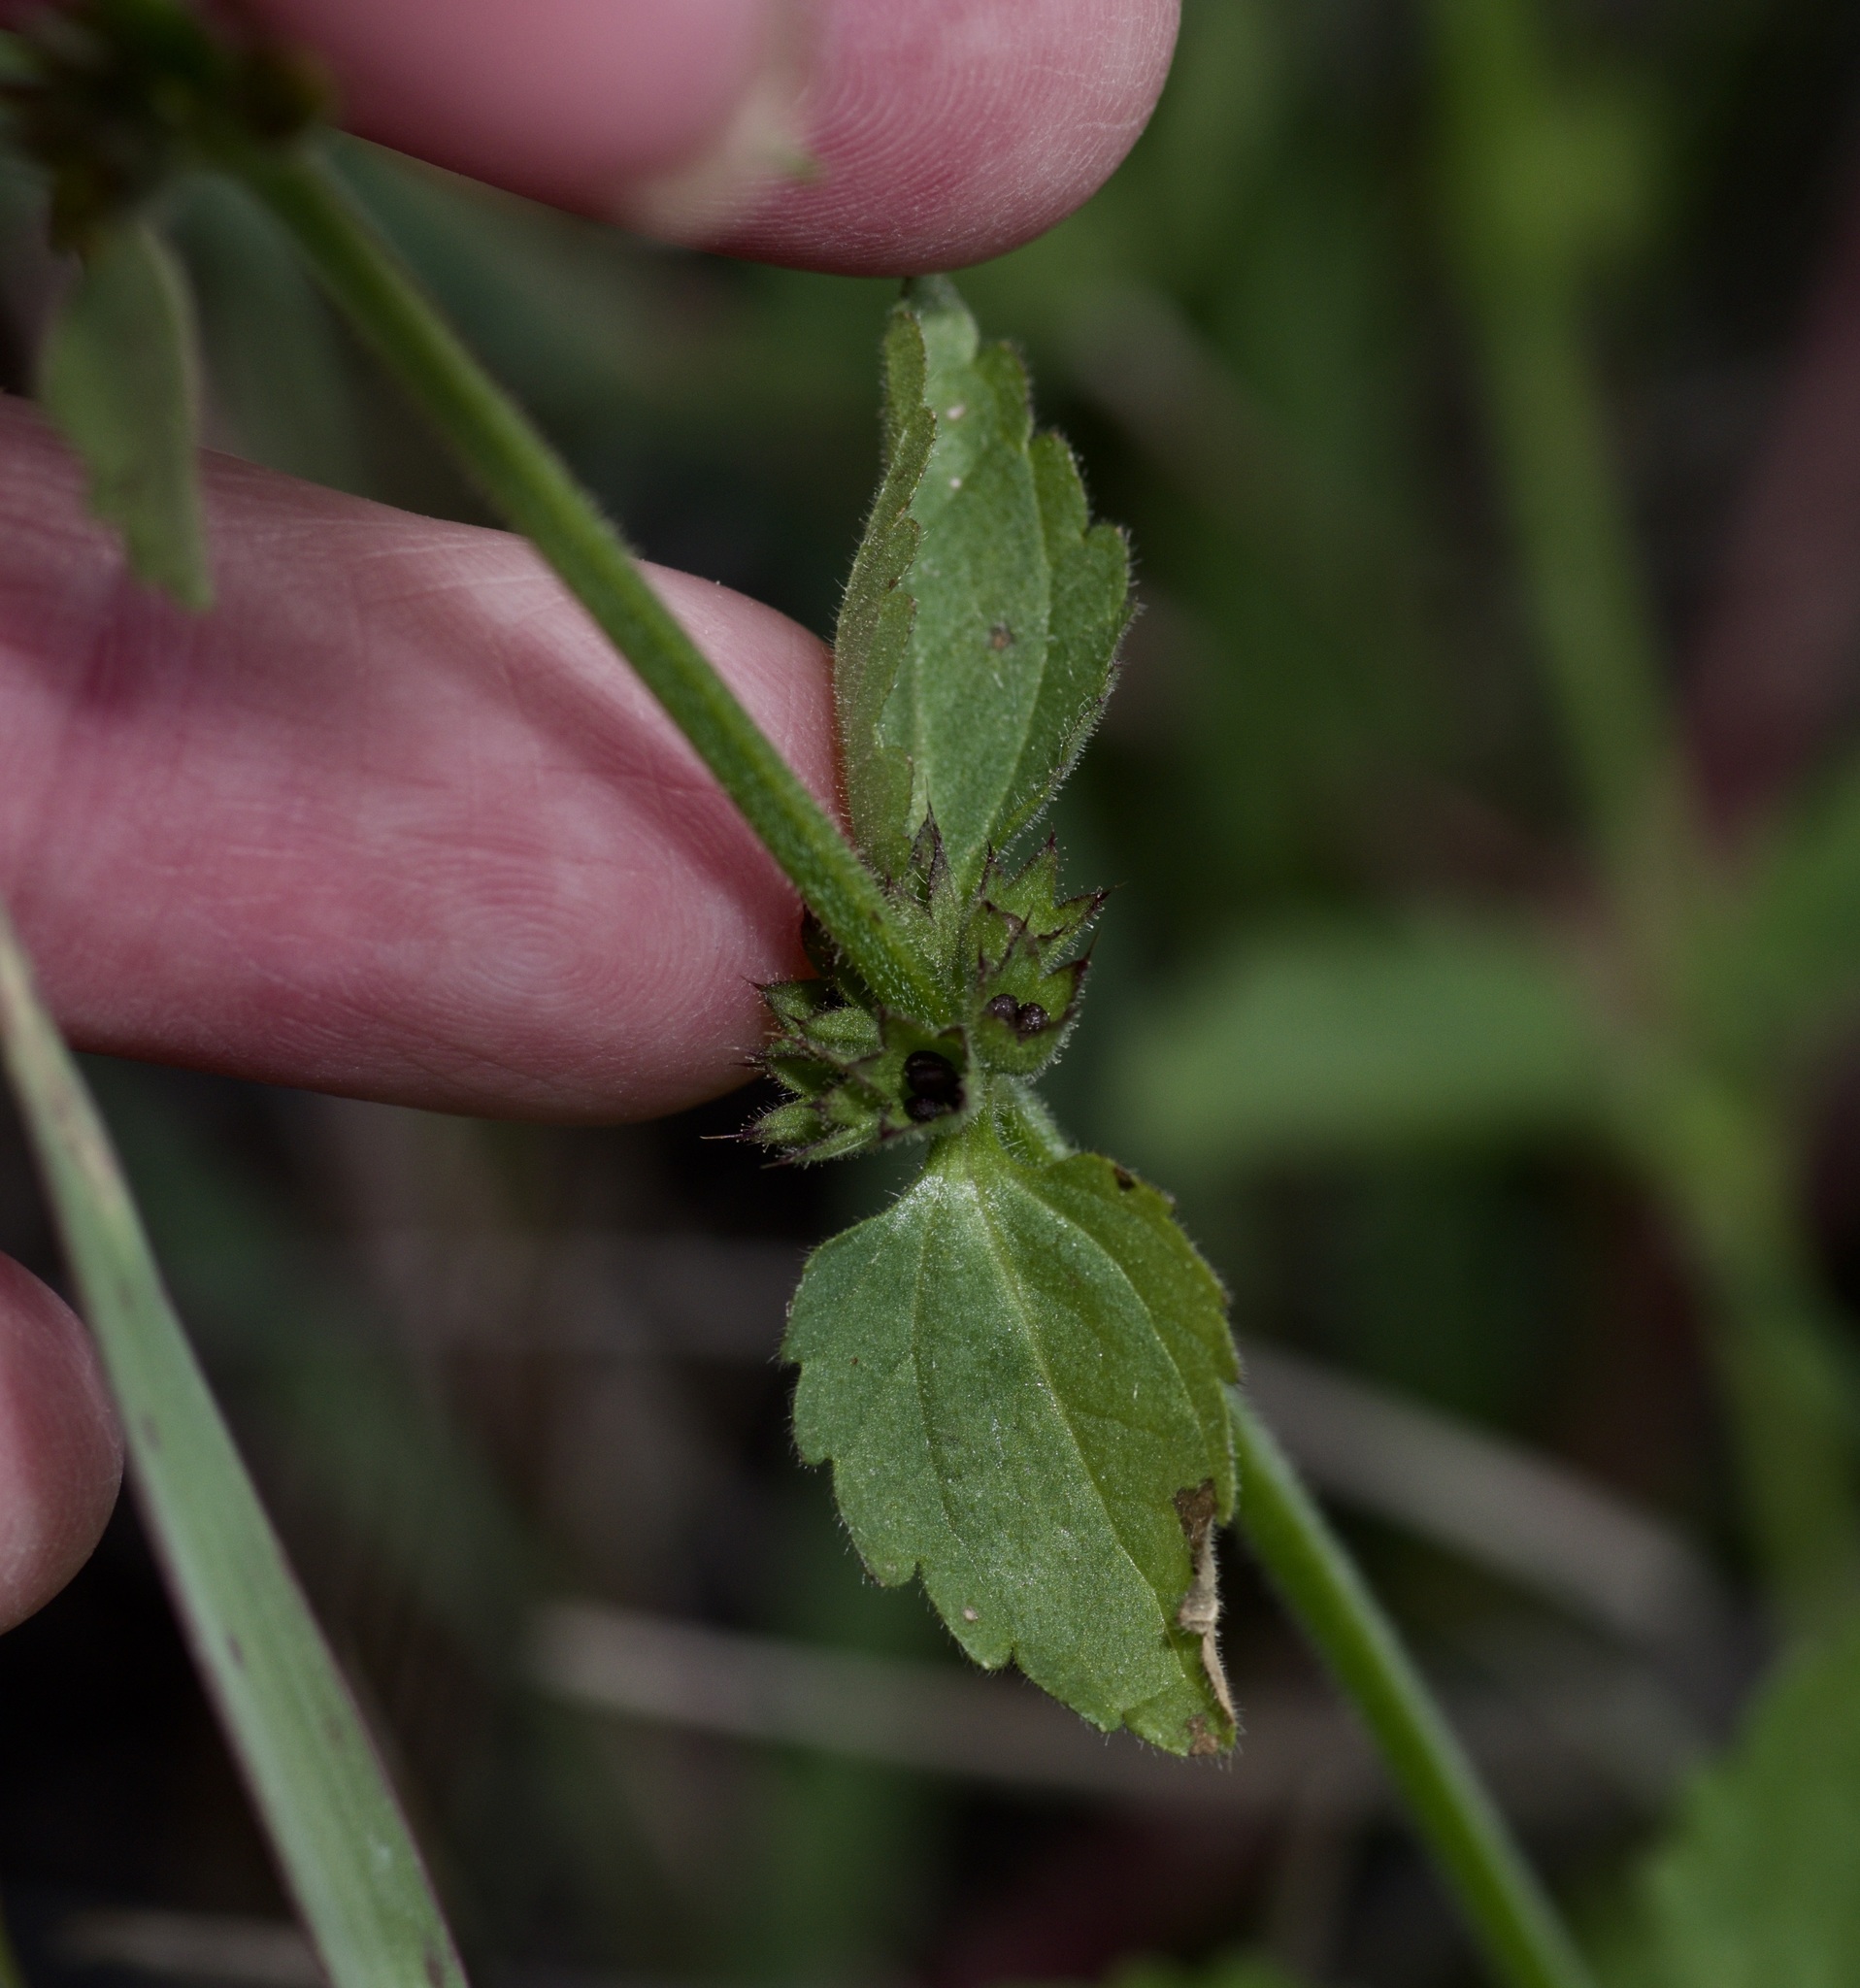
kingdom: Plantae
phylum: Tracheophyta
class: Magnoliopsida
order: Lamiales
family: Lamiaceae
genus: Stachys
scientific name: Stachys
